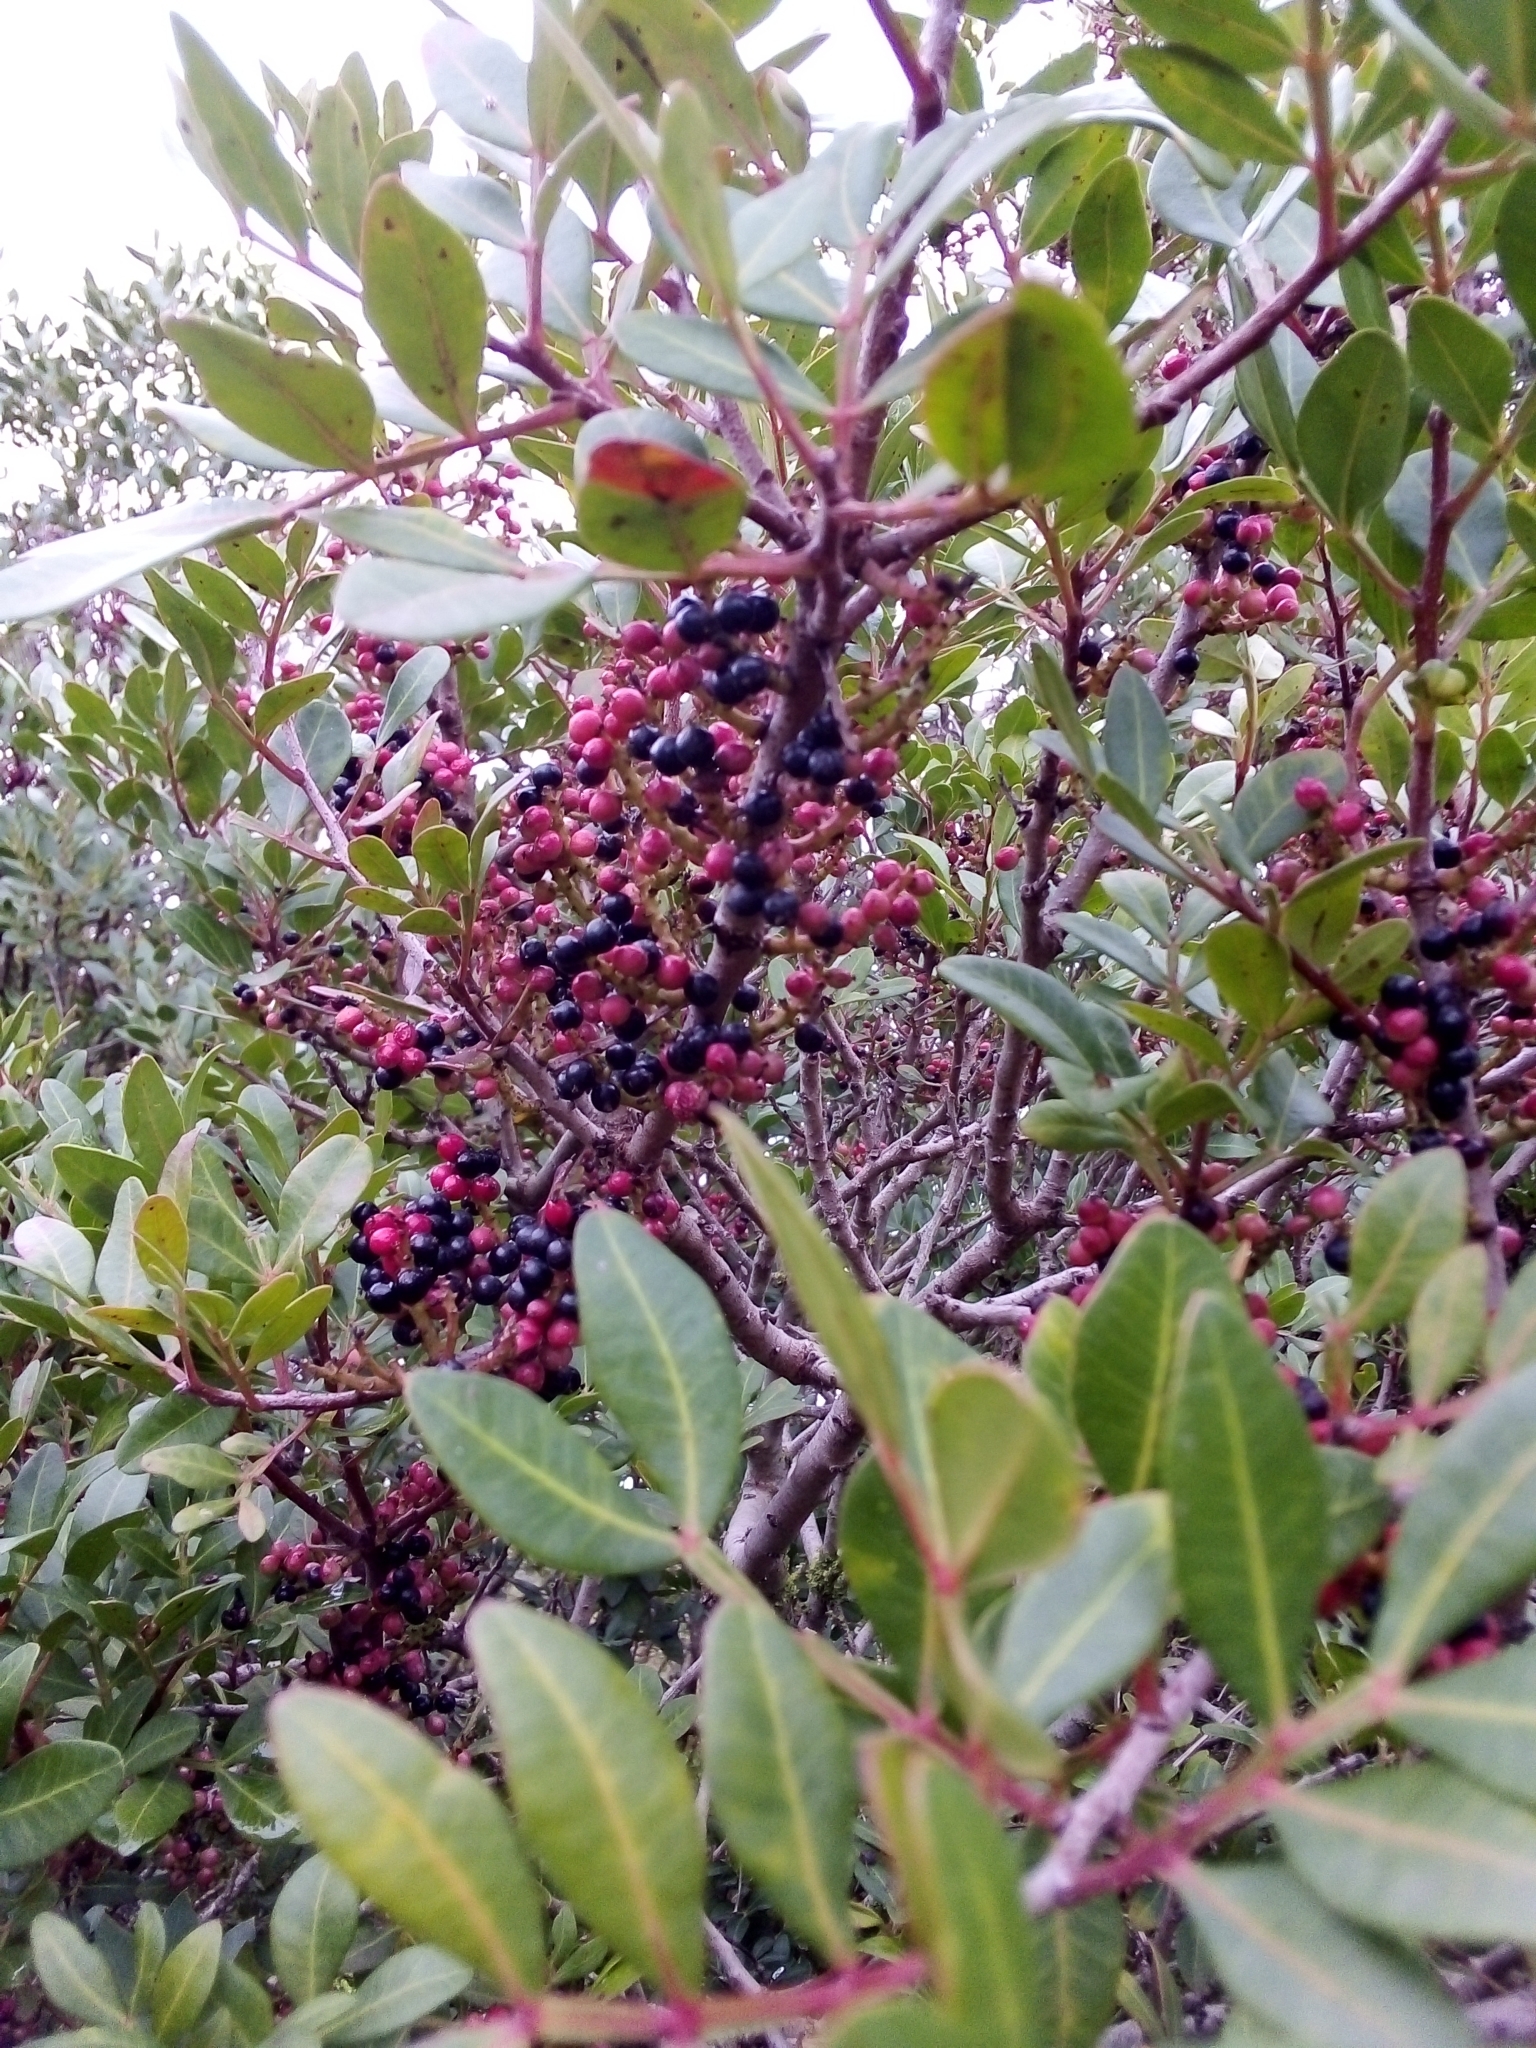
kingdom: Plantae
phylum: Tracheophyta
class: Magnoliopsida
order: Sapindales
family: Anacardiaceae
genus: Pistacia
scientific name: Pistacia lentiscus
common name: Lentisk
